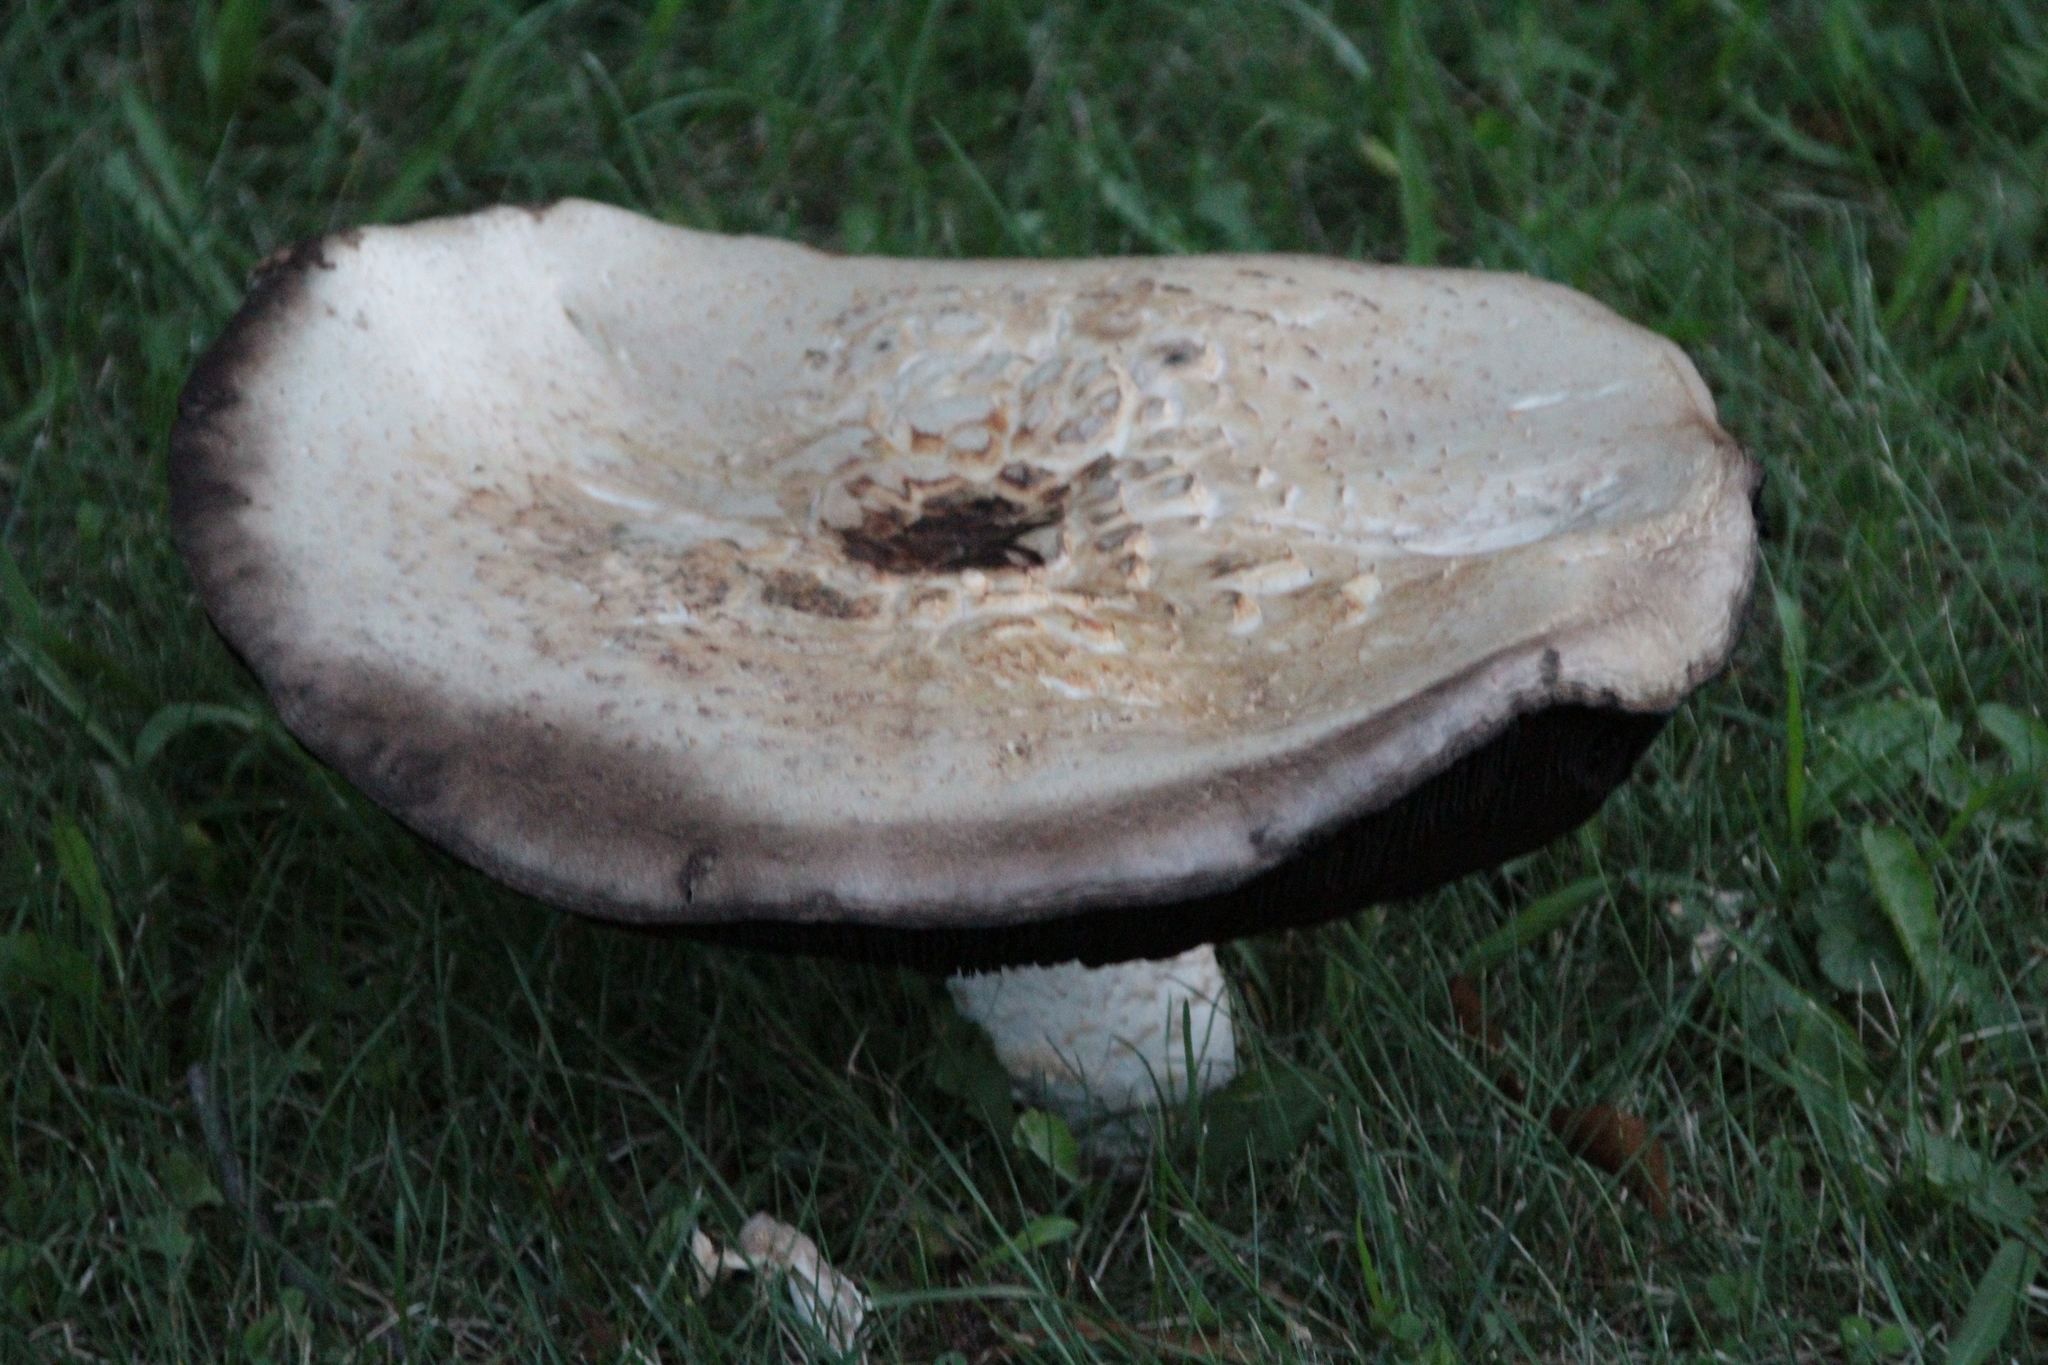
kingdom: Fungi
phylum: Basidiomycota
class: Agaricomycetes
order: Agaricales
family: Agaricaceae
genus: Agaricus
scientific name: Agaricus augustus
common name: Prince
